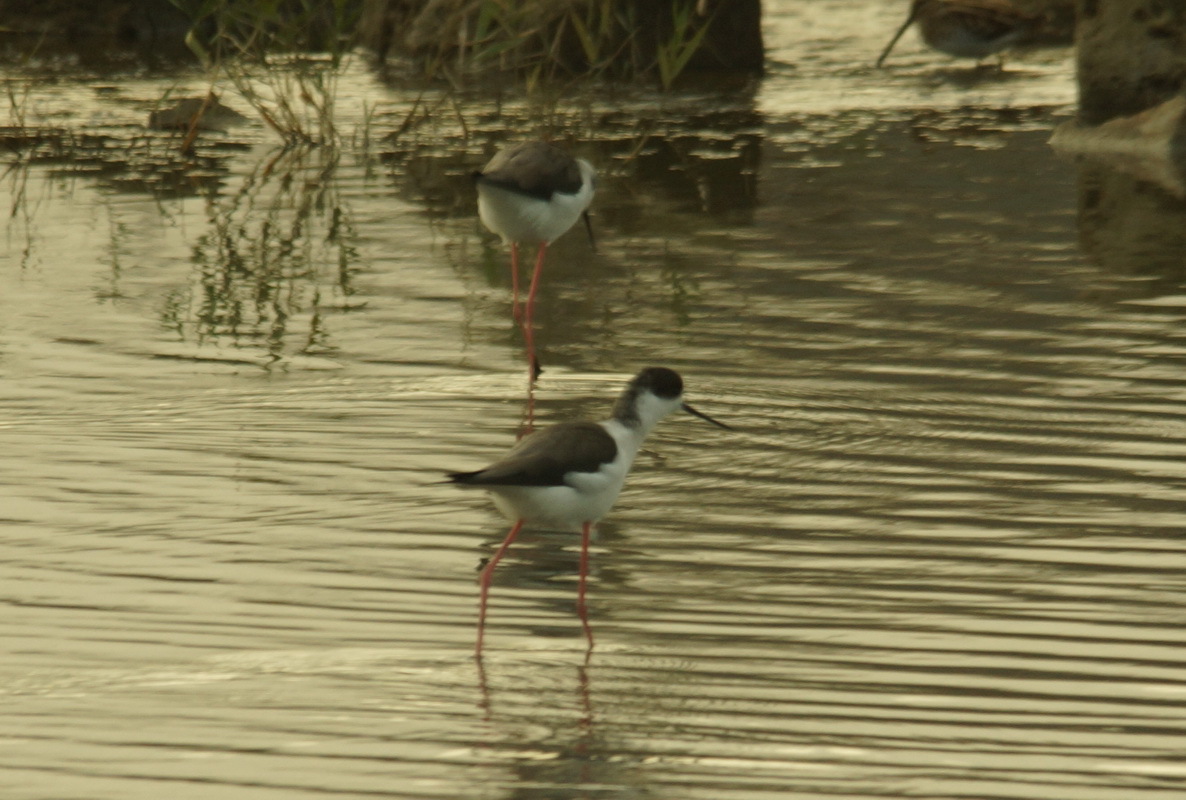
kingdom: Animalia
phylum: Chordata
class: Aves
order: Charadriiformes
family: Recurvirostridae
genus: Himantopus
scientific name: Himantopus himantopus
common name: Black-winged stilt
